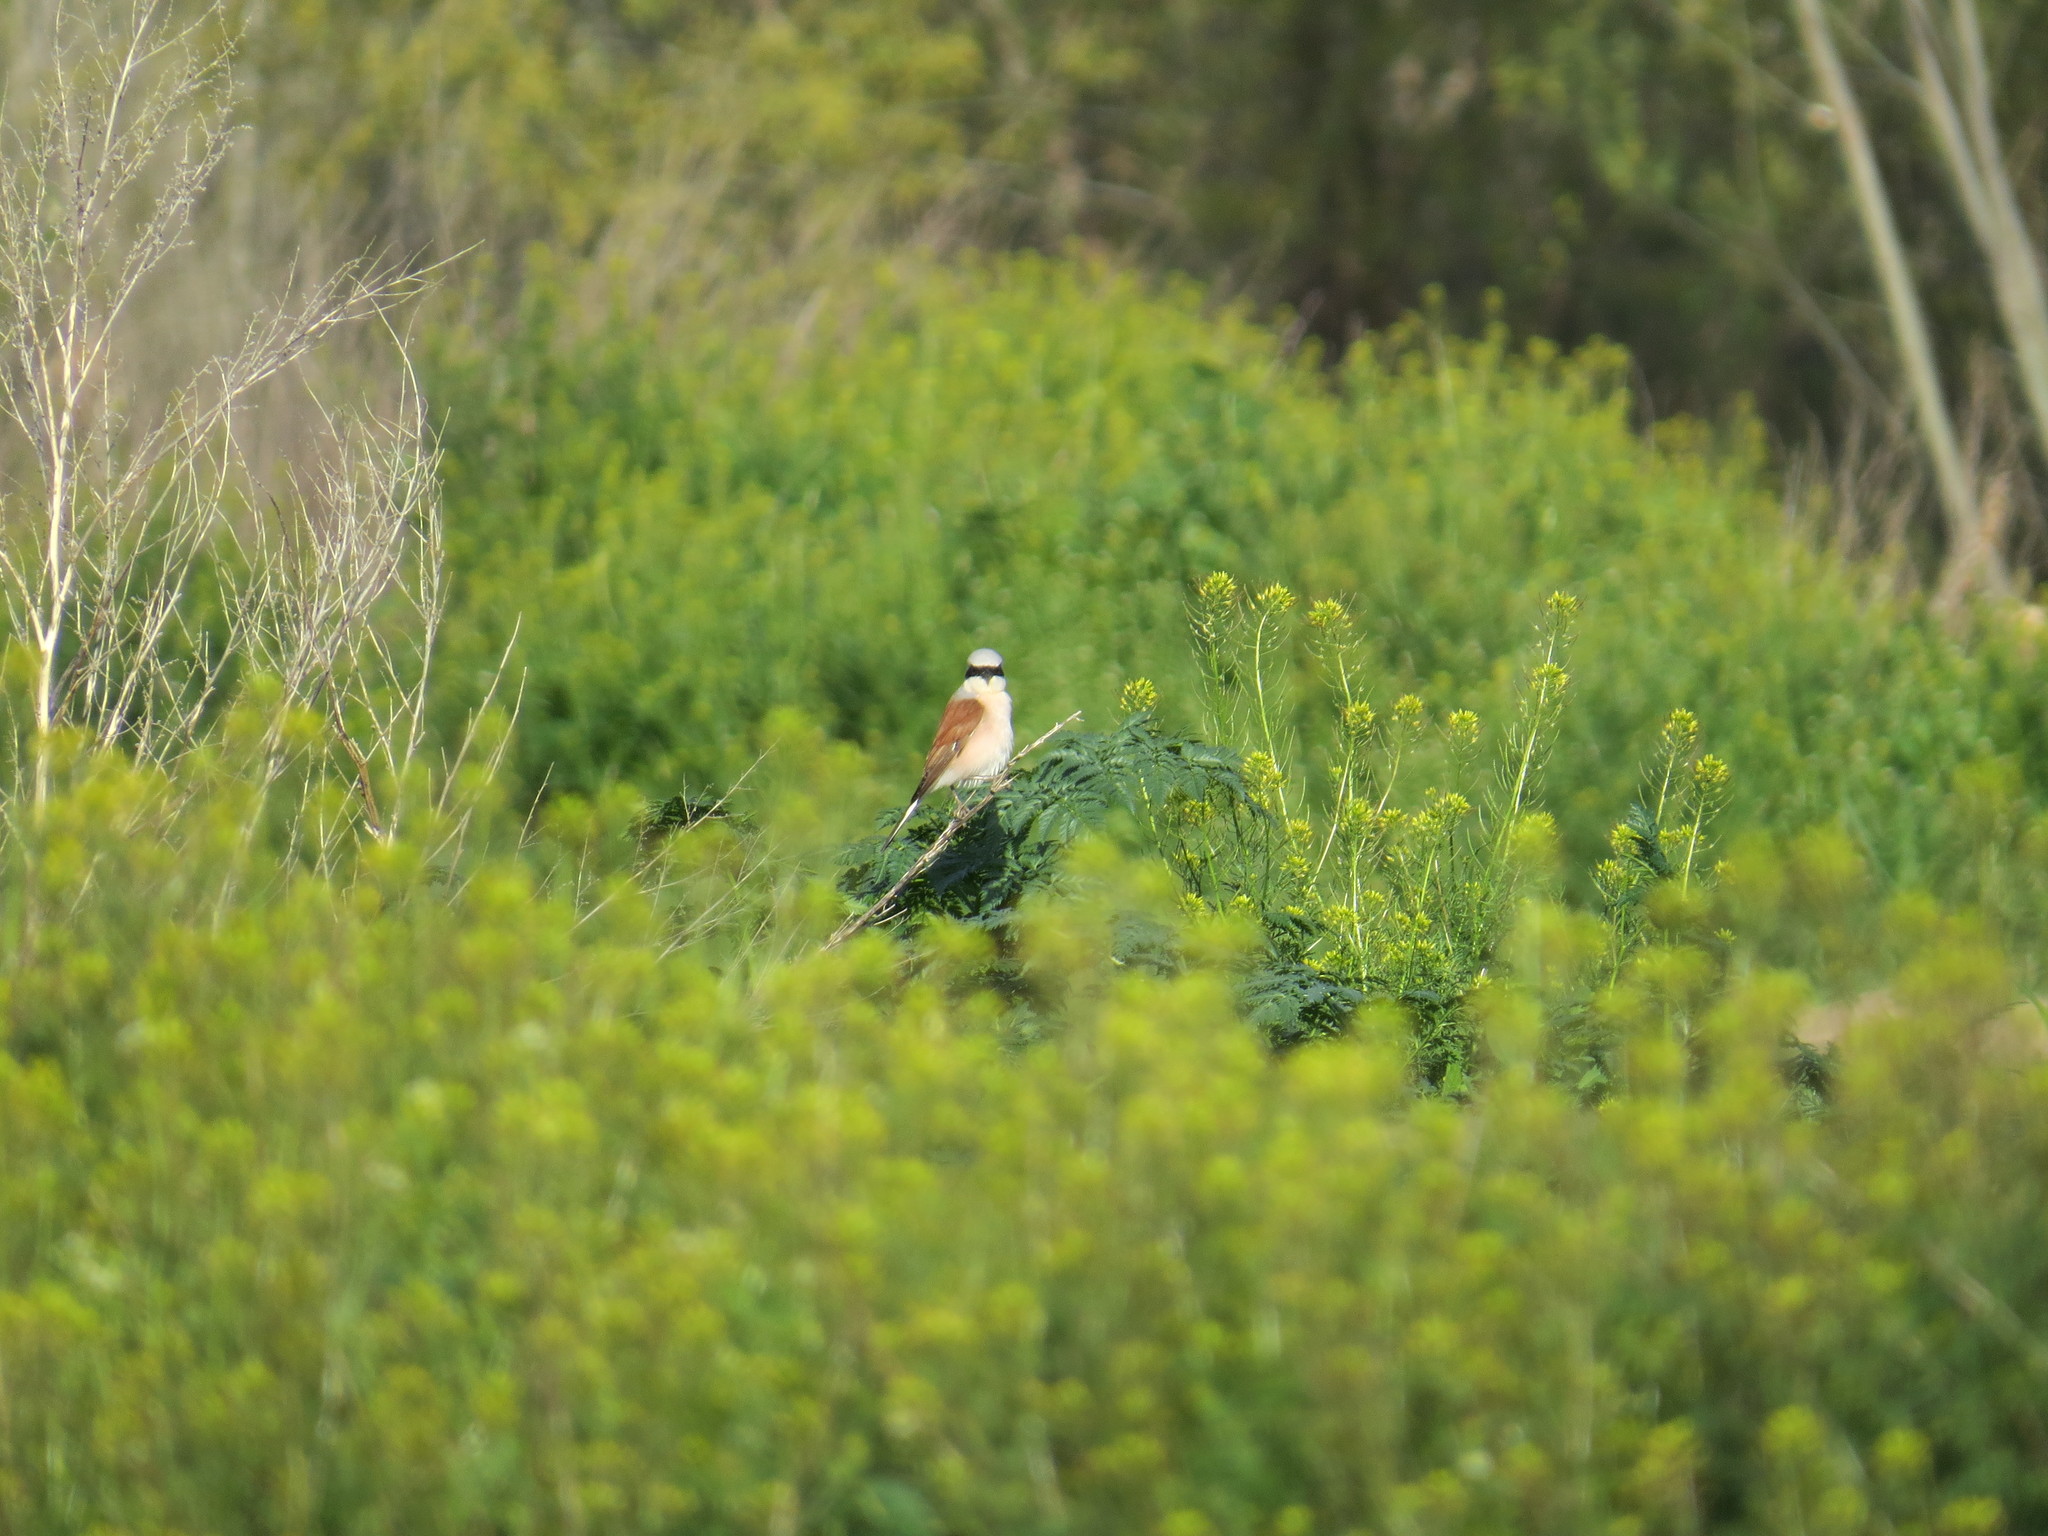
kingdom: Animalia
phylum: Chordata
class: Aves
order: Passeriformes
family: Laniidae
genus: Lanius
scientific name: Lanius collurio
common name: Red-backed shrike
